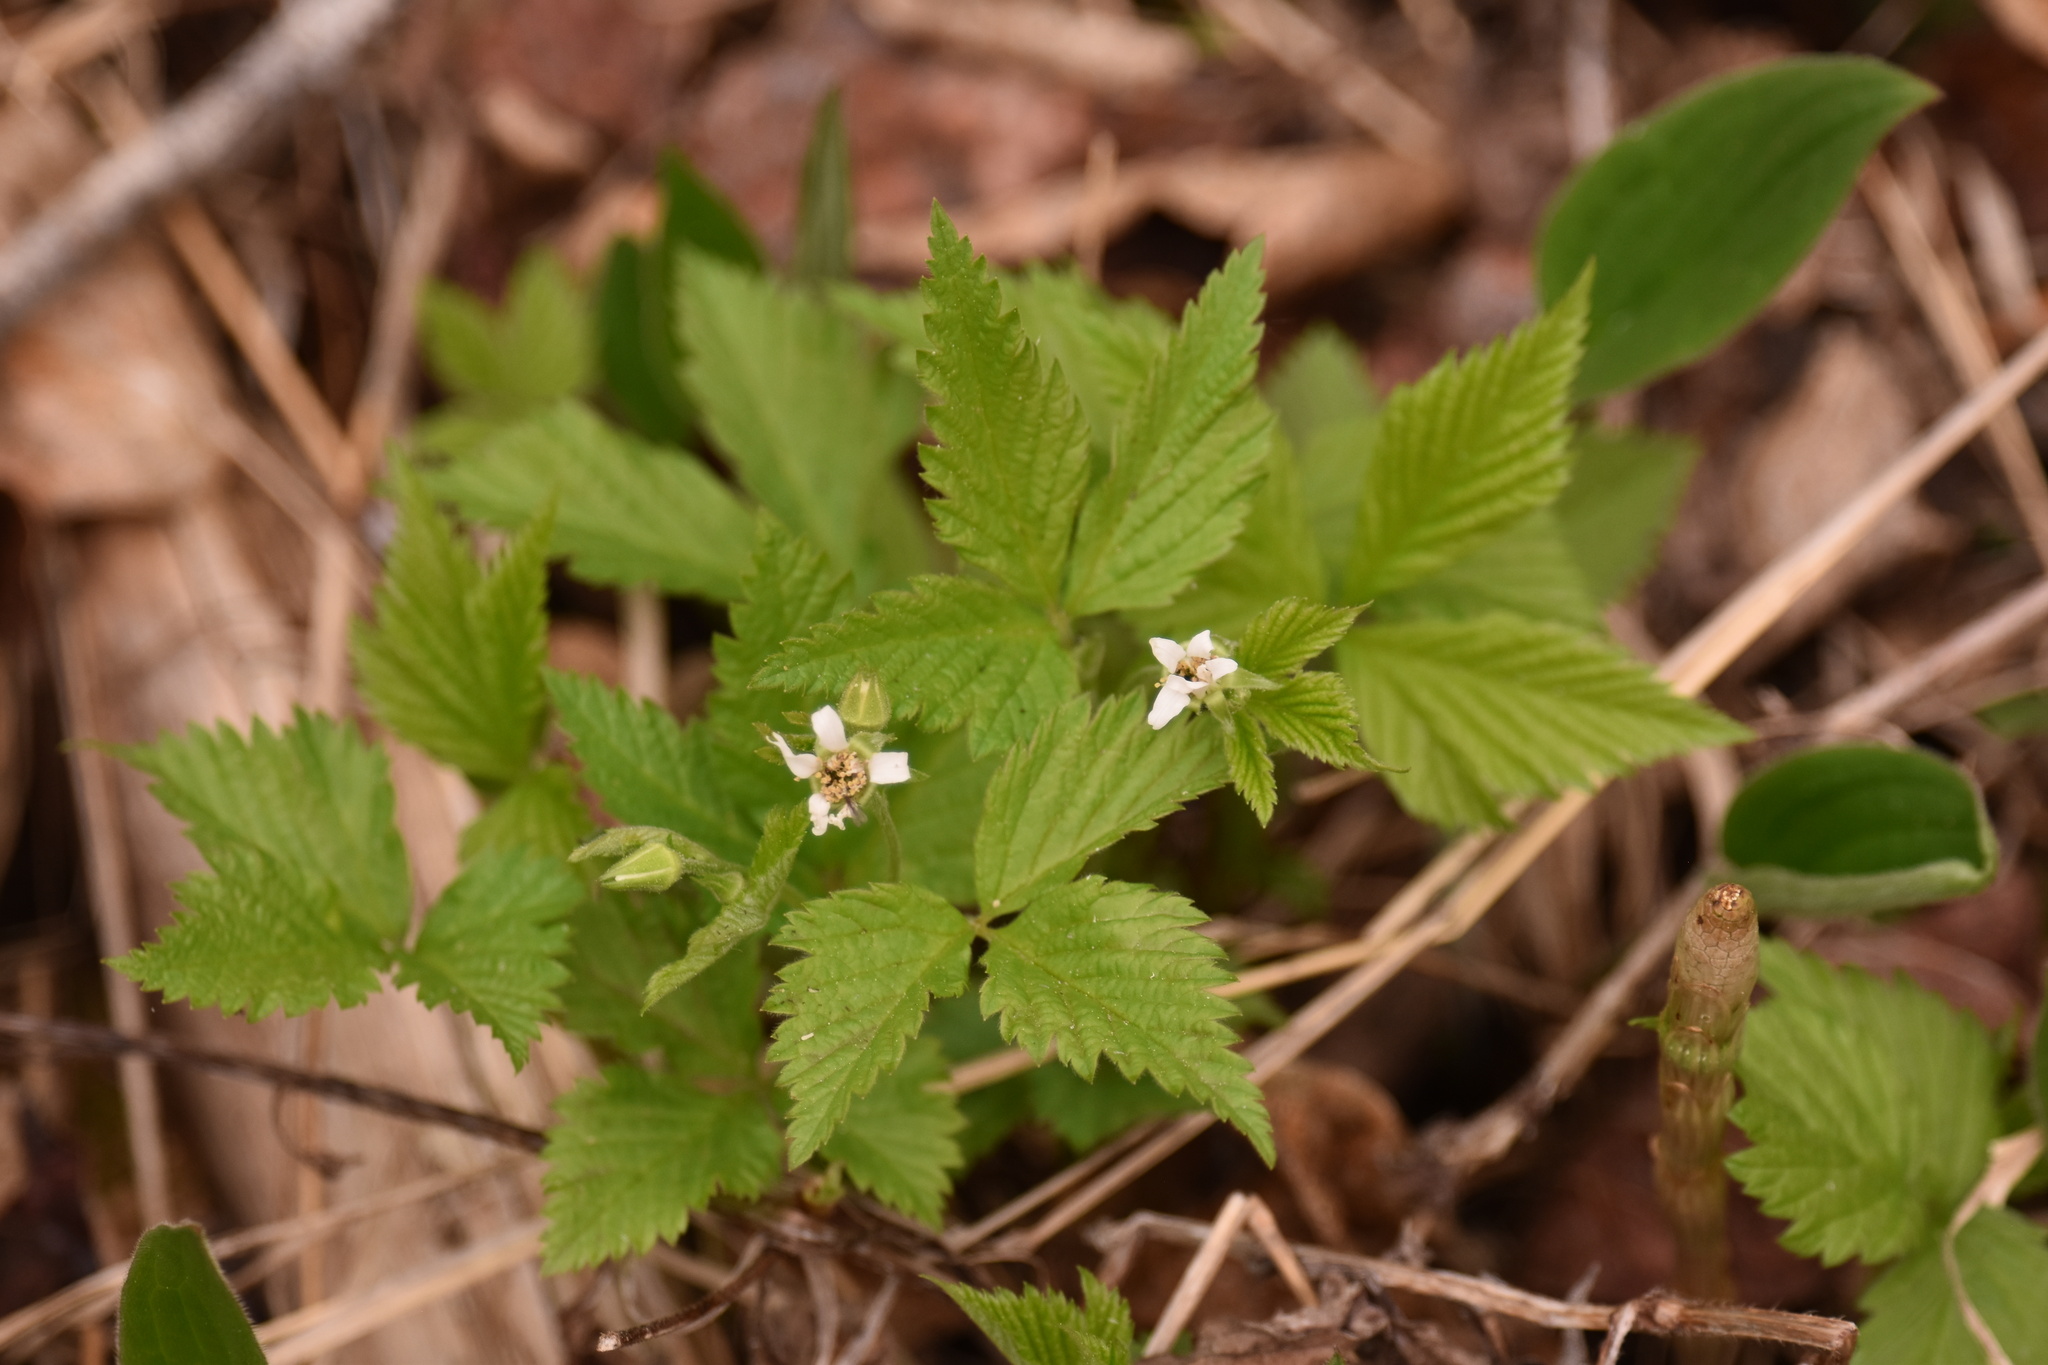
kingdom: Plantae
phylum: Tracheophyta
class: Magnoliopsida
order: Rosales
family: Rosaceae
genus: Rubus
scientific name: Rubus pubescens
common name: Dwarf raspberry
